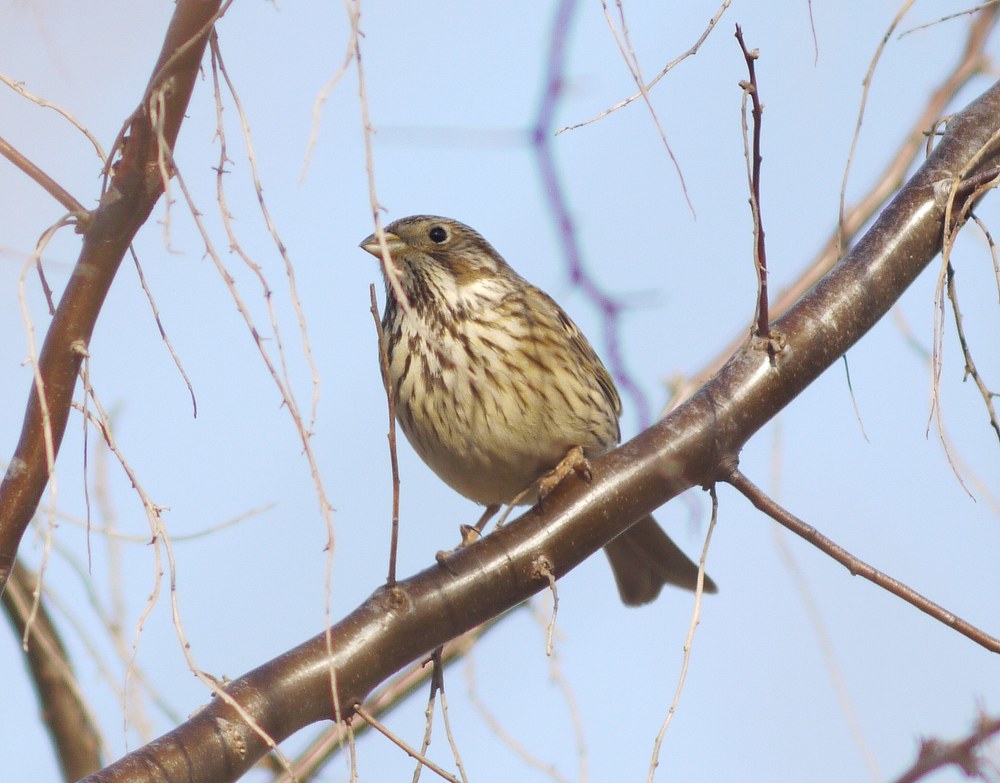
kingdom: Animalia
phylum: Chordata
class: Aves
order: Passeriformes
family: Emberizidae
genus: Emberiza
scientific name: Emberiza calandra
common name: Corn bunting
